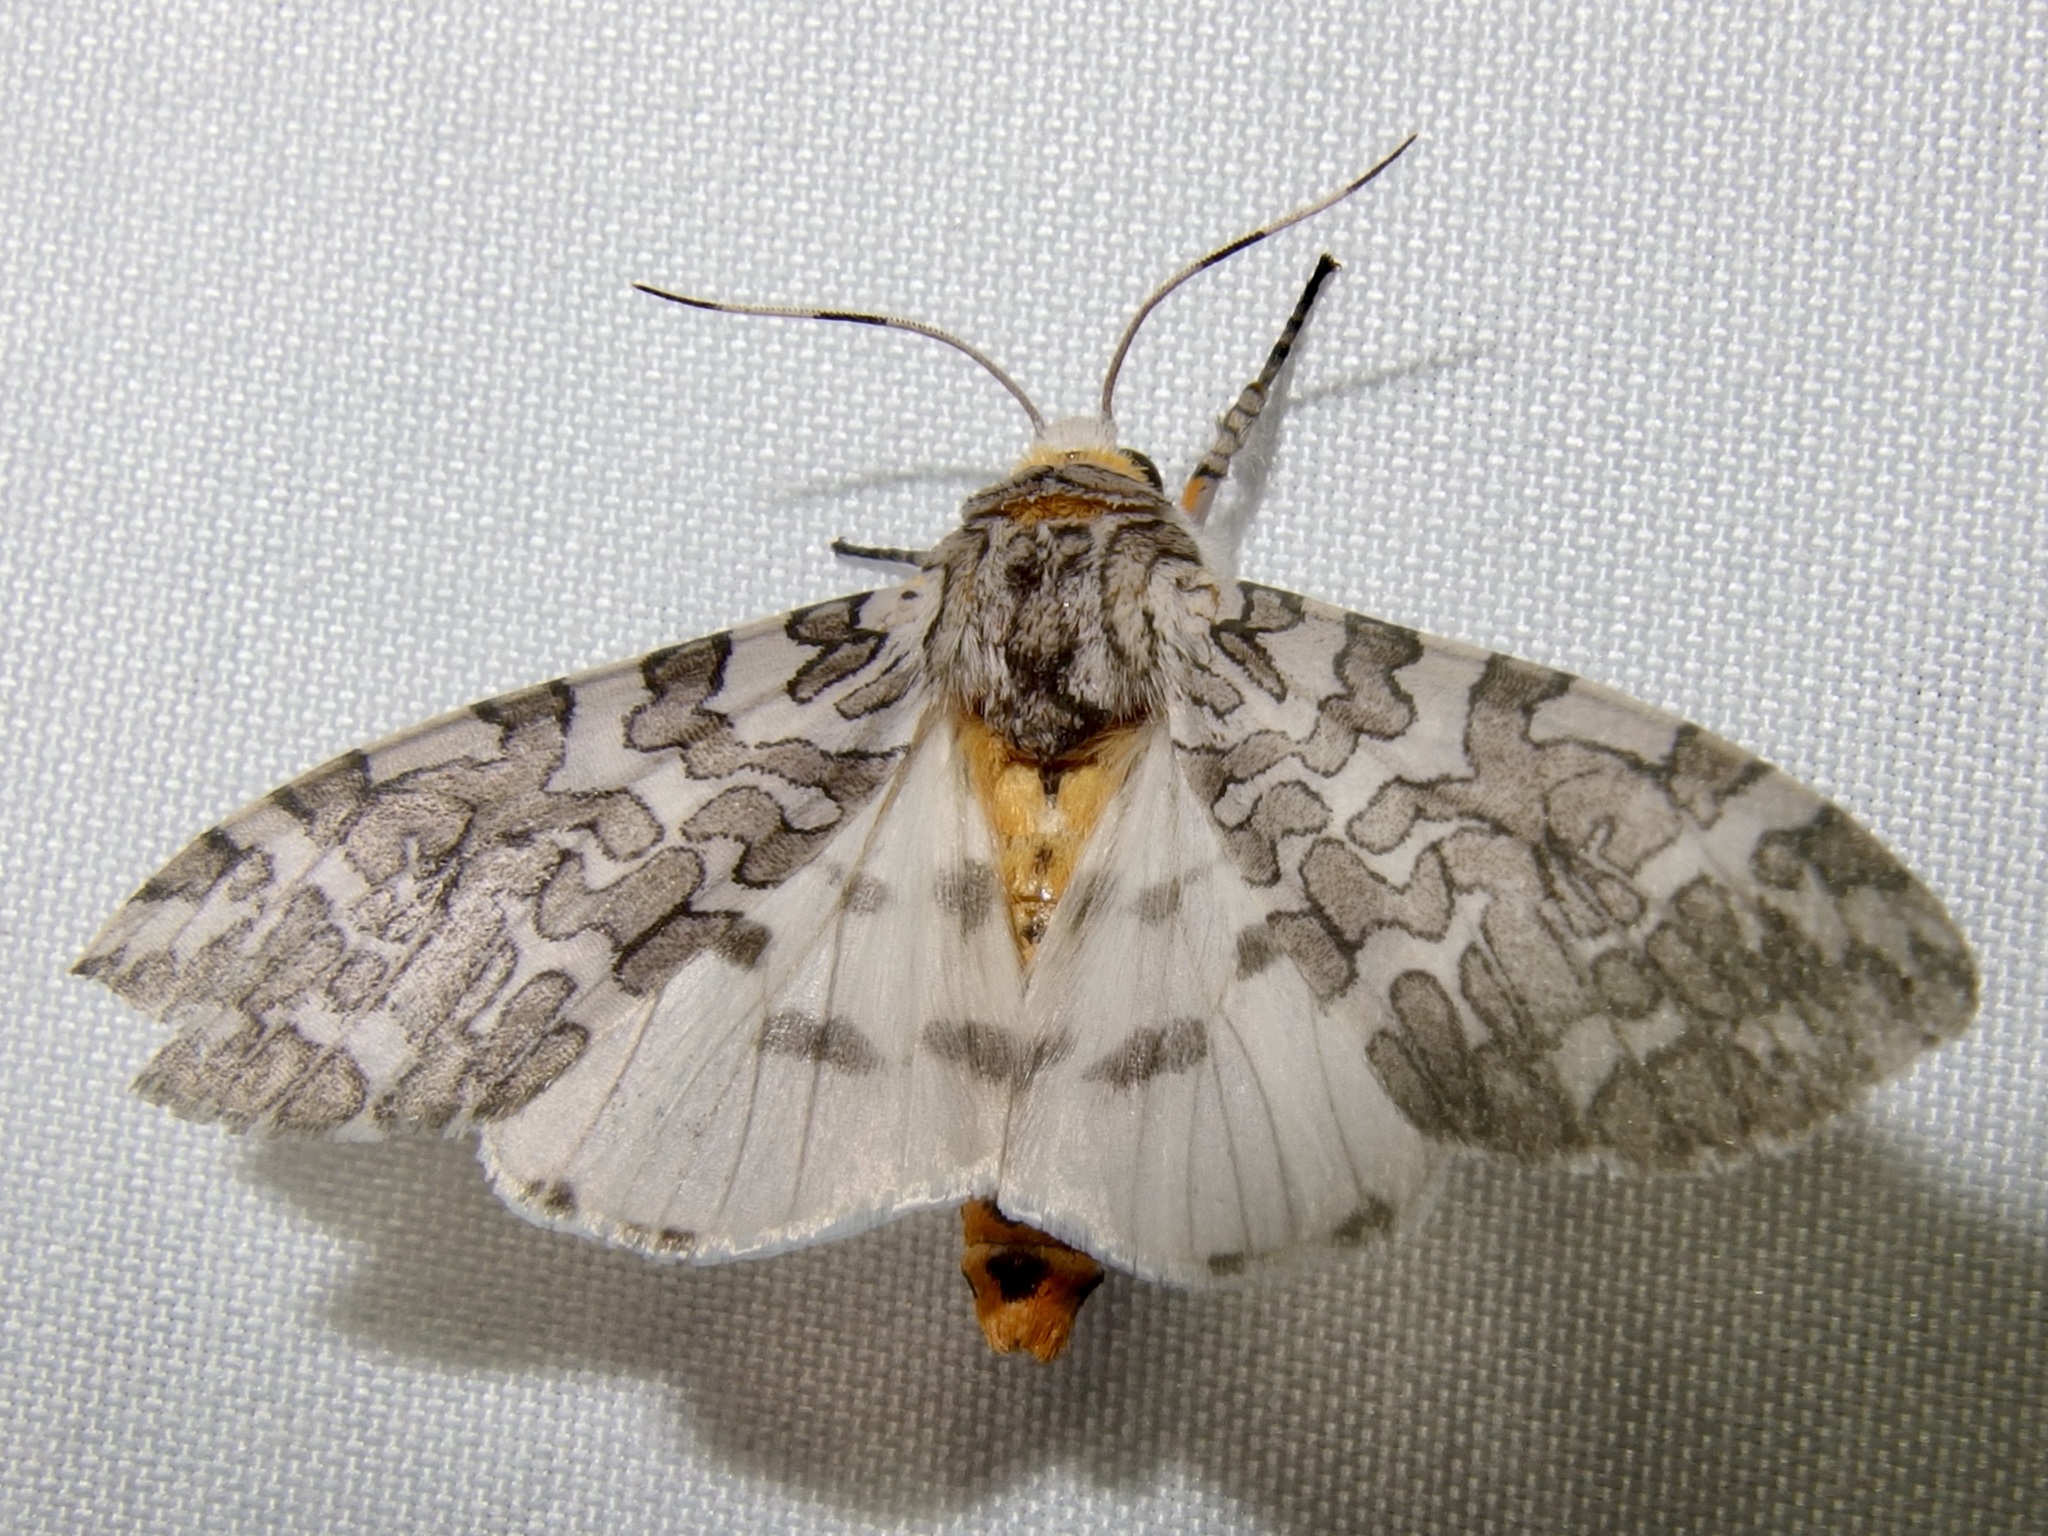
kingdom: Animalia
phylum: Arthropoda
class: Insecta
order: Lepidoptera
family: Erebidae
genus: Hypercompe
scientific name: Hypercompe suffusa
